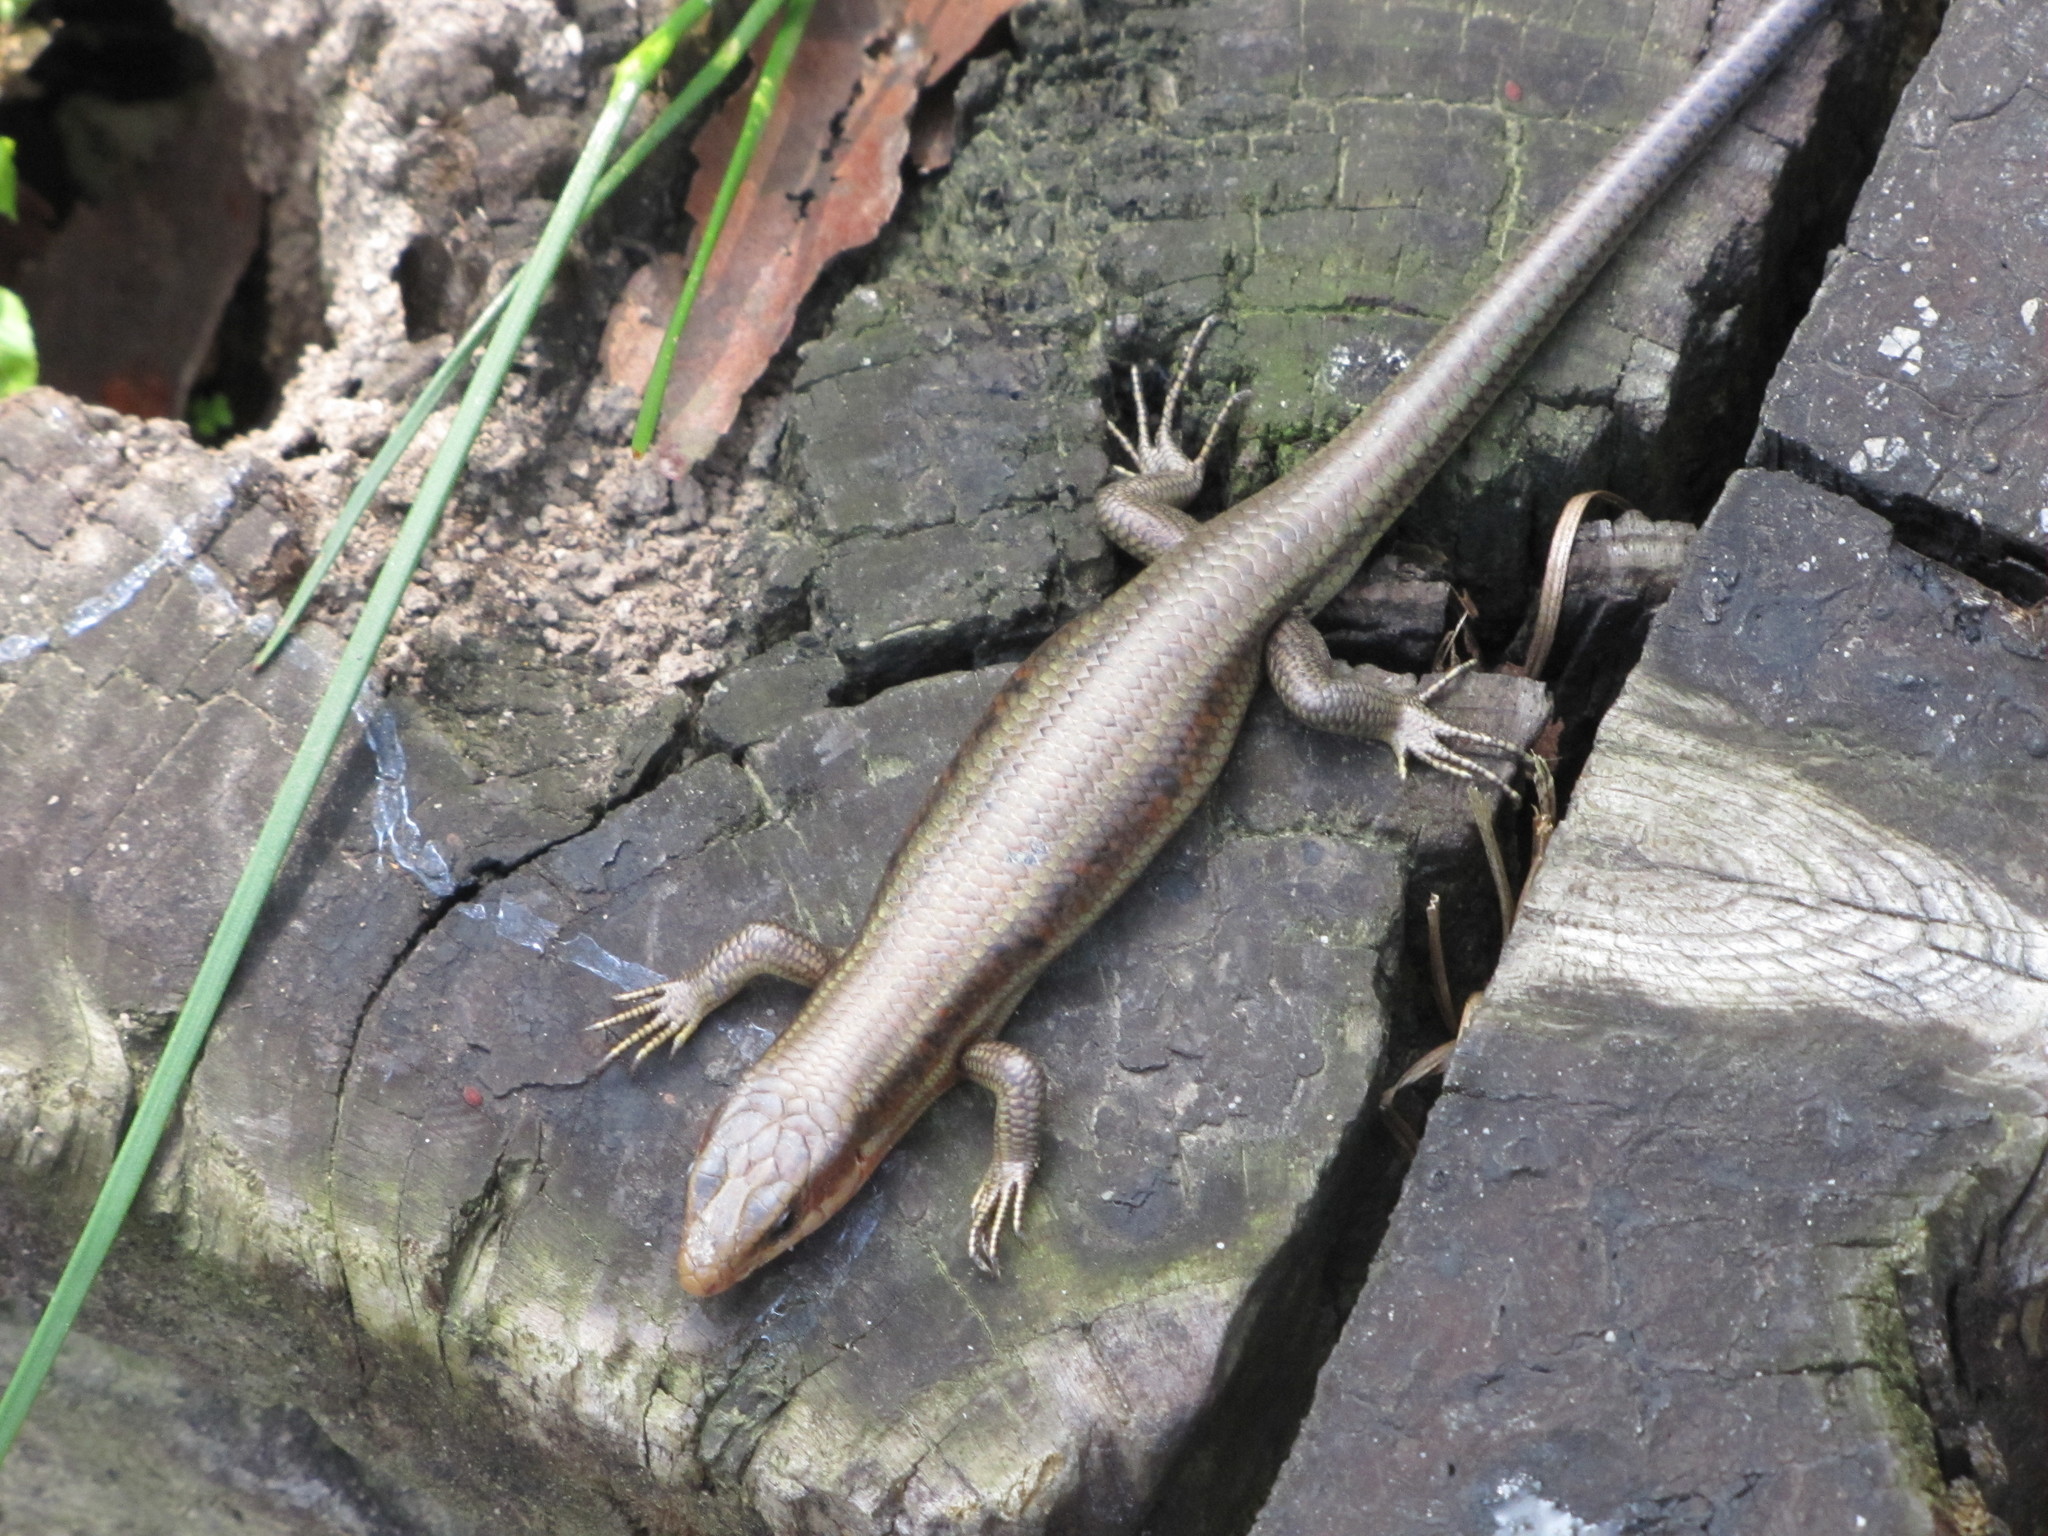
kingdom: Animalia
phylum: Chordata
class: Squamata
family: Scincidae
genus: Plestiodon
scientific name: Plestiodon elegans
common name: Shanghai elegant skink
